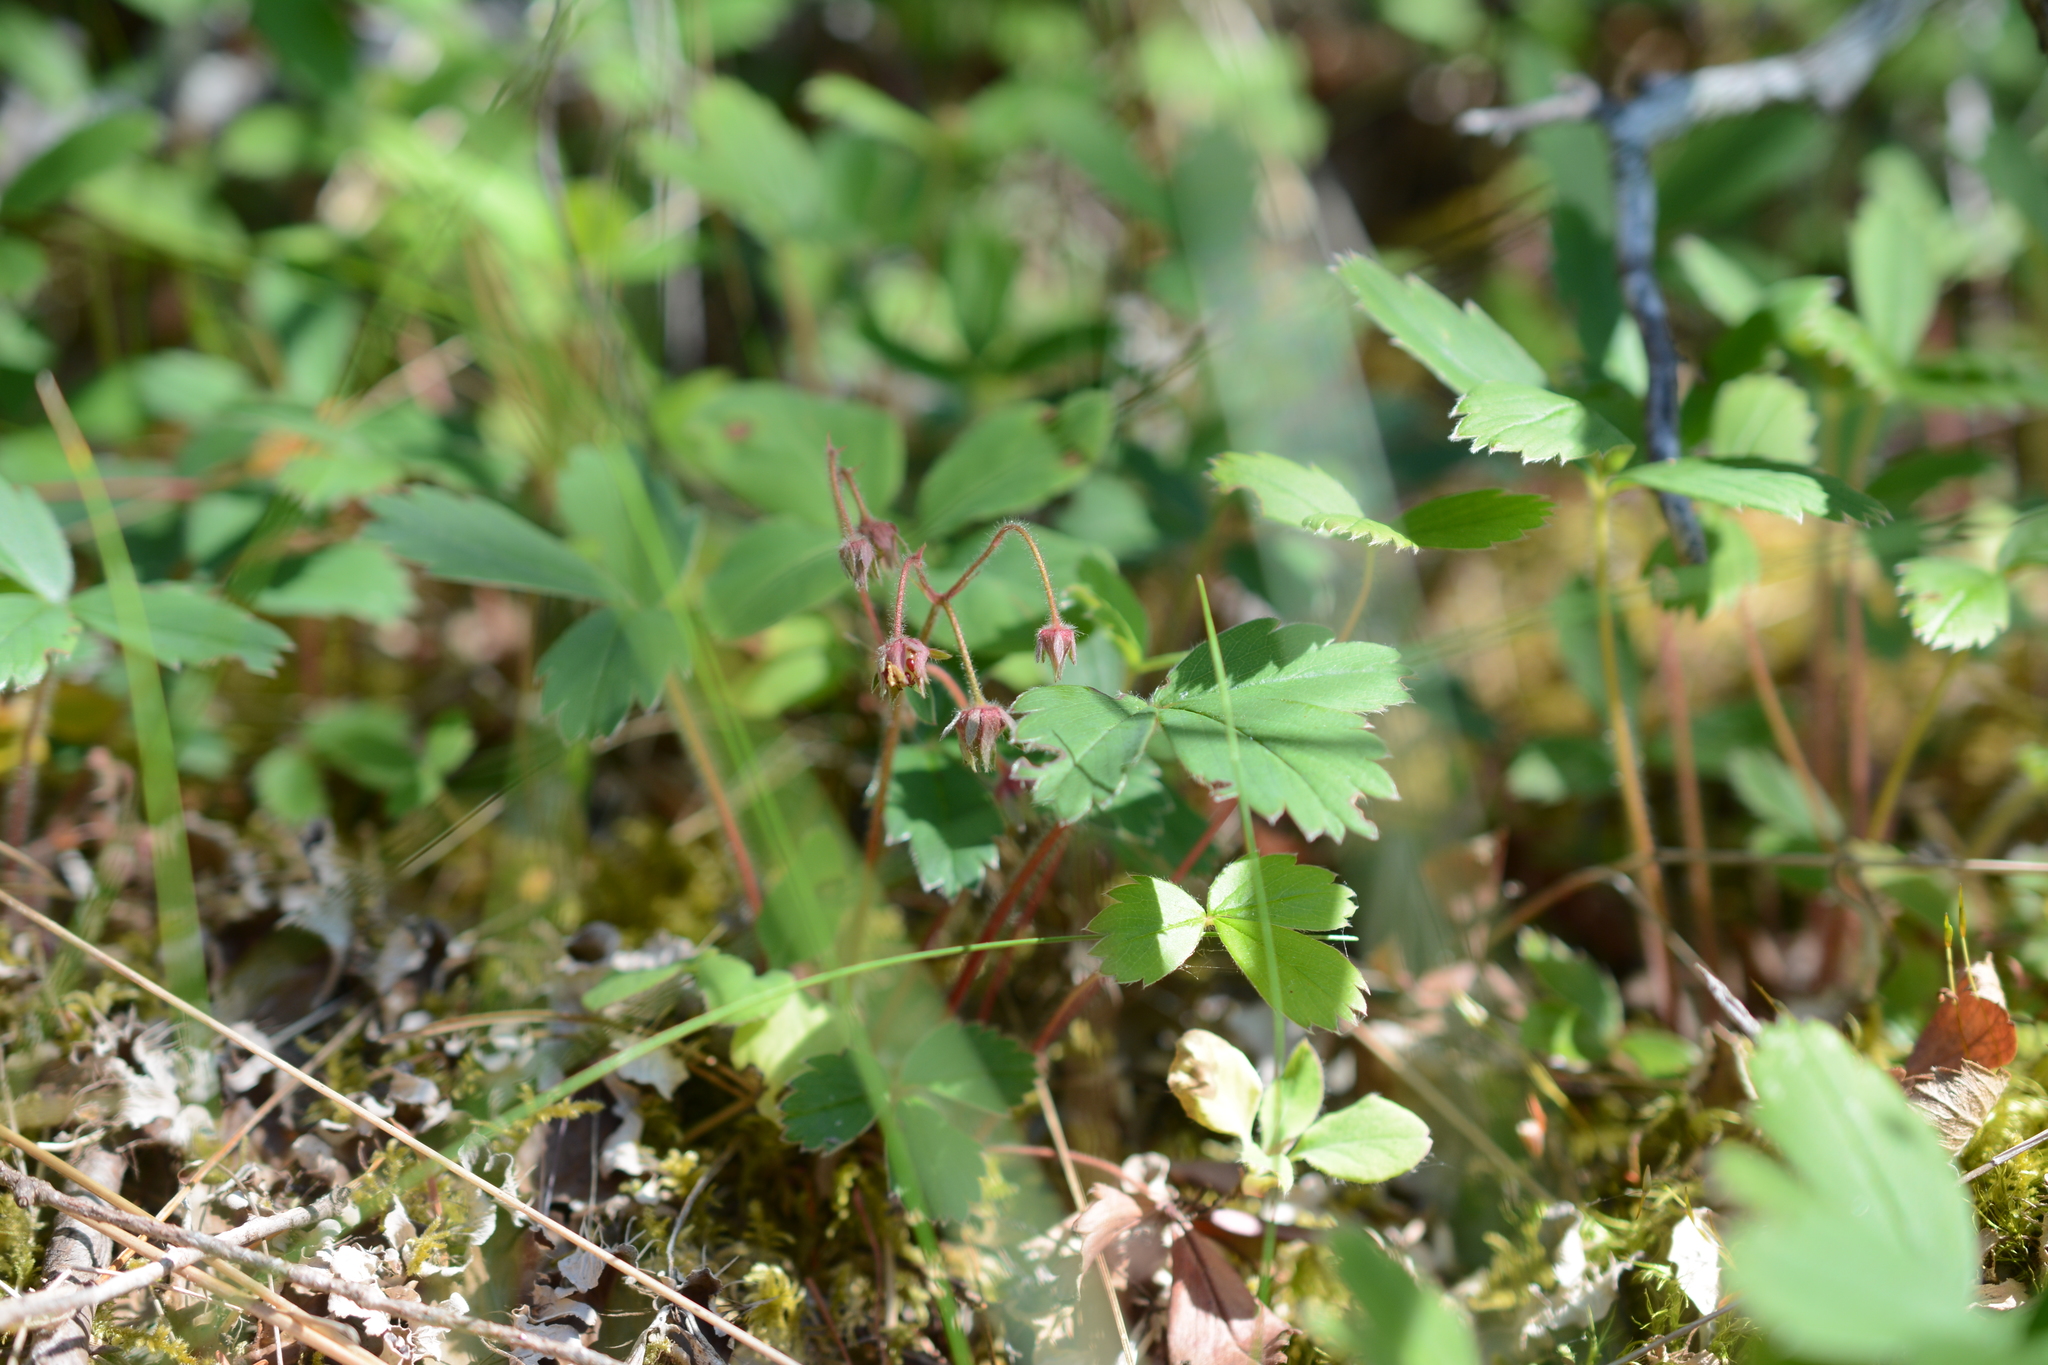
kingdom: Plantae
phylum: Tracheophyta
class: Magnoliopsida
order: Rosales
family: Rosaceae
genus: Fragaria
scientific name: Fragaria virginiana
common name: Thickleaved wild strawberry
